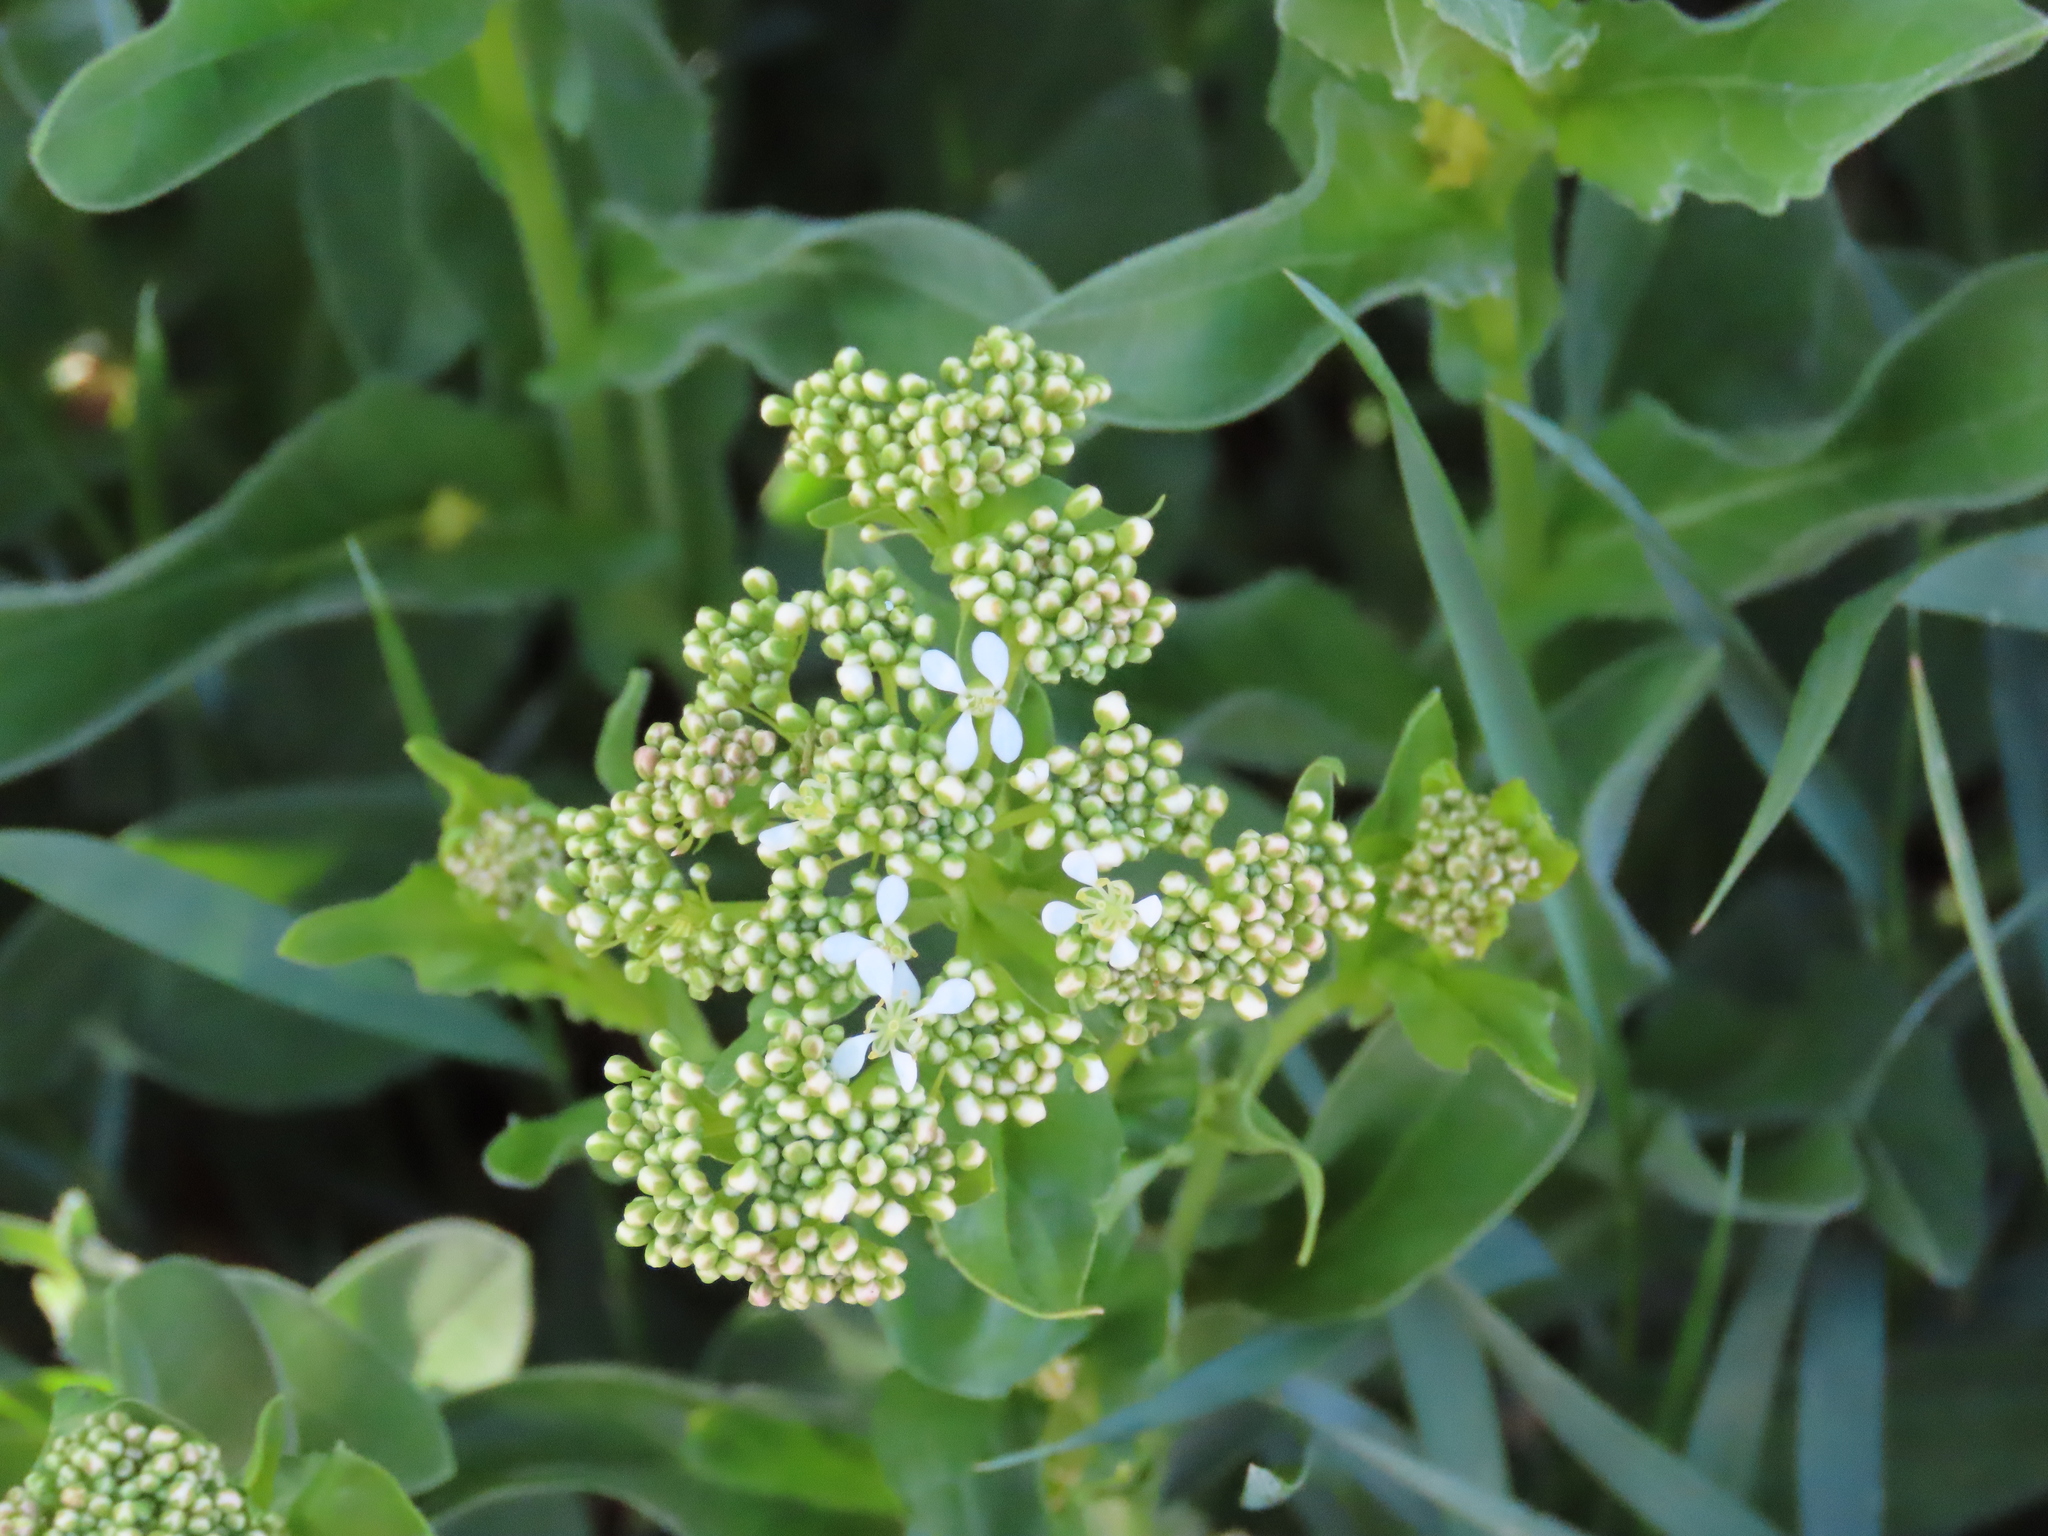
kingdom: Plantae
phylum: Tracheophyta
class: Magnoliopsida
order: Brassicales
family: Brassicaceae
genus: Lepidium
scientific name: Lepidium draba
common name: Hoary cress
